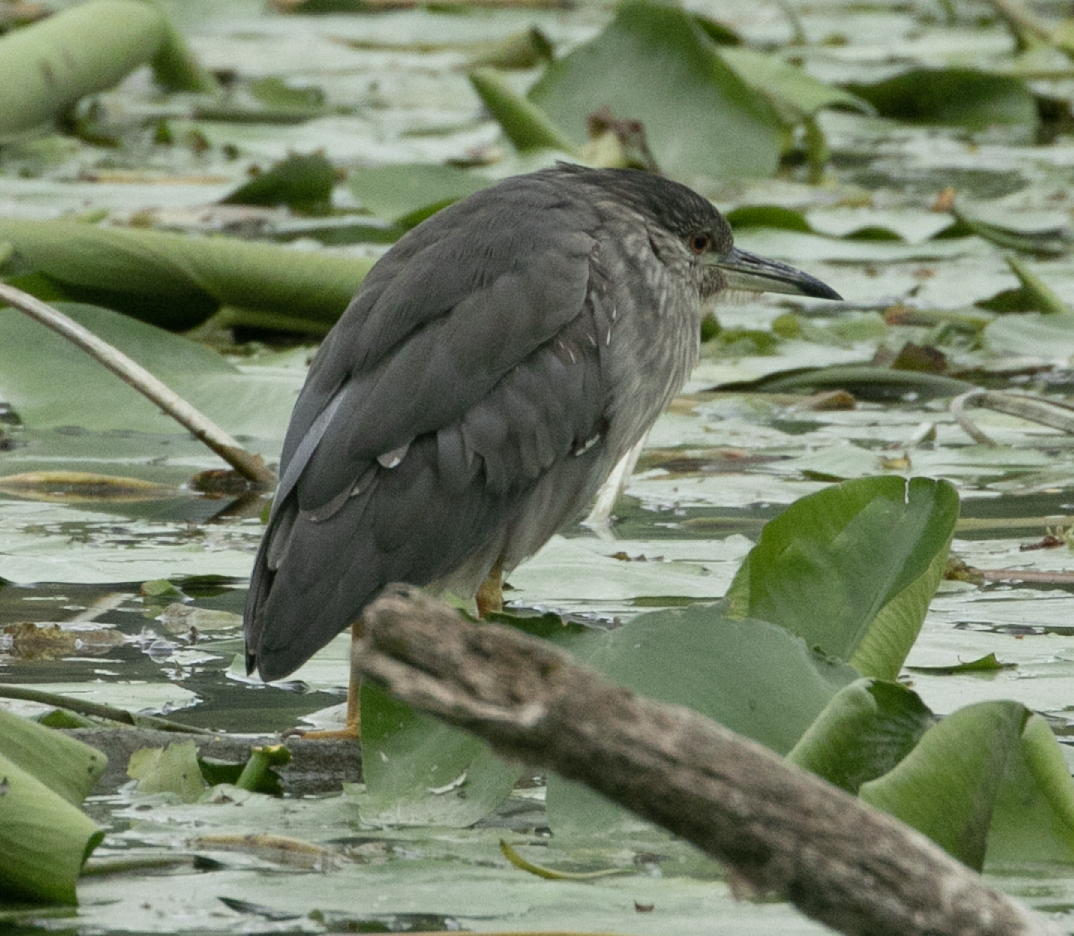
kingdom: Animalia
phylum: Chordata
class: Aves
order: Pelecaniformes
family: Ardeidae
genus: Nycticorax
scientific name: Nycticorax nycticorax
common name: Black-crowned night heron
